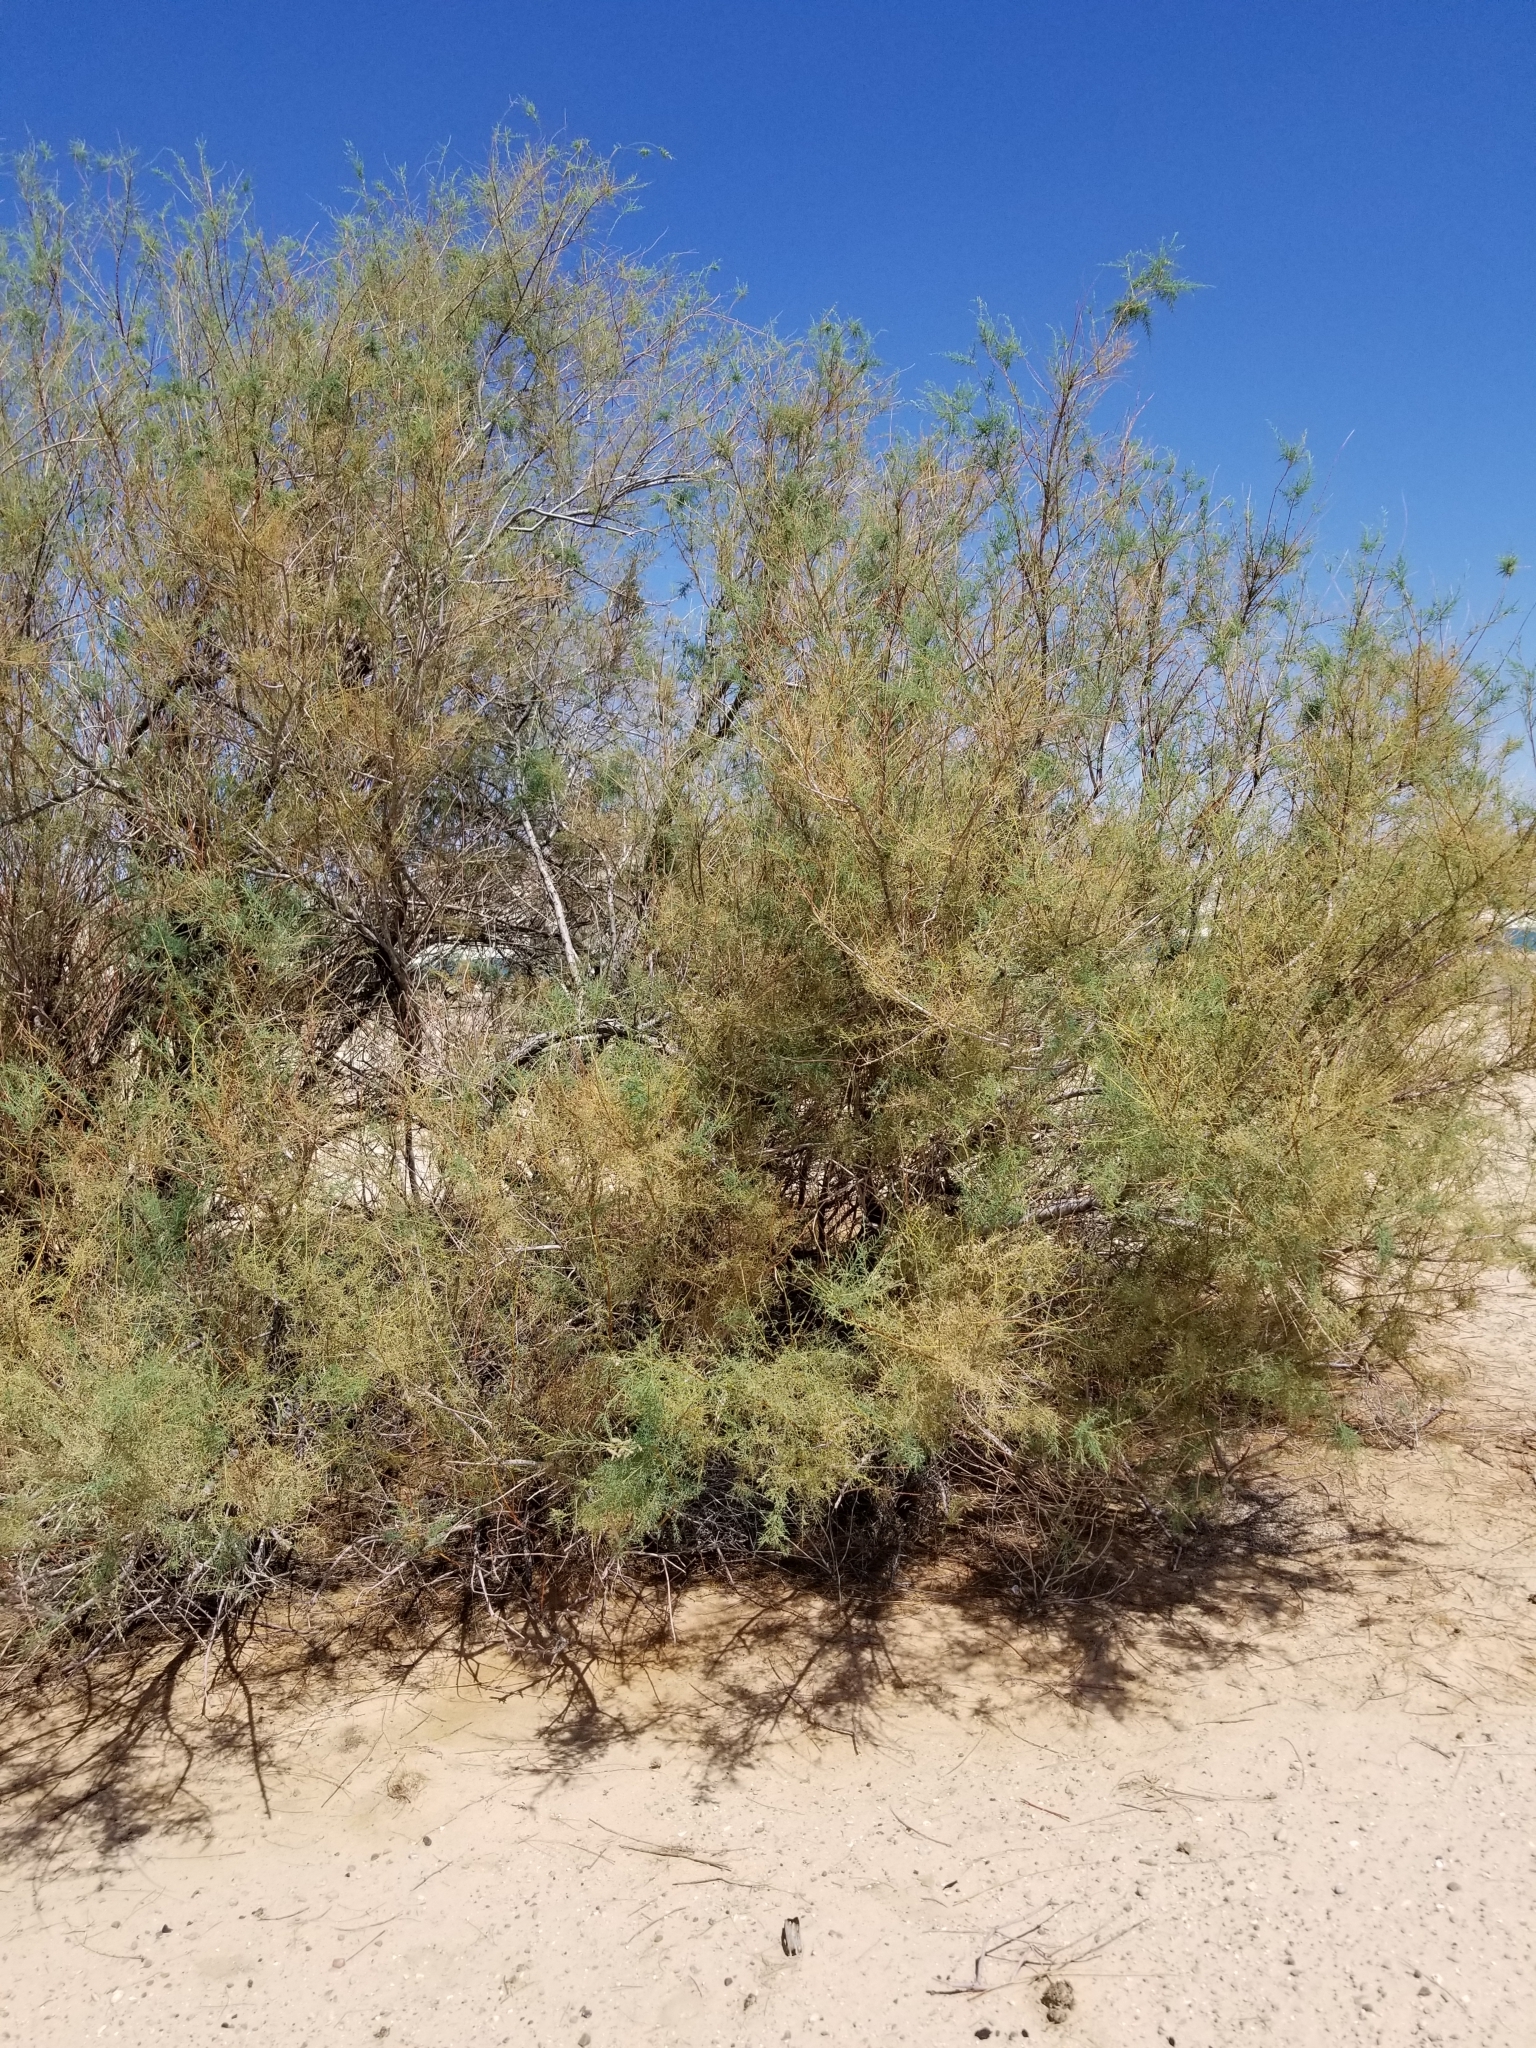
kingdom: Plantae
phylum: Tracheophyta
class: Magnoliopsida
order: Caryophyllales
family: Tamaricaceae
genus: Tamarix
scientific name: Tamarix ramosissima
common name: Pink tamarisk
